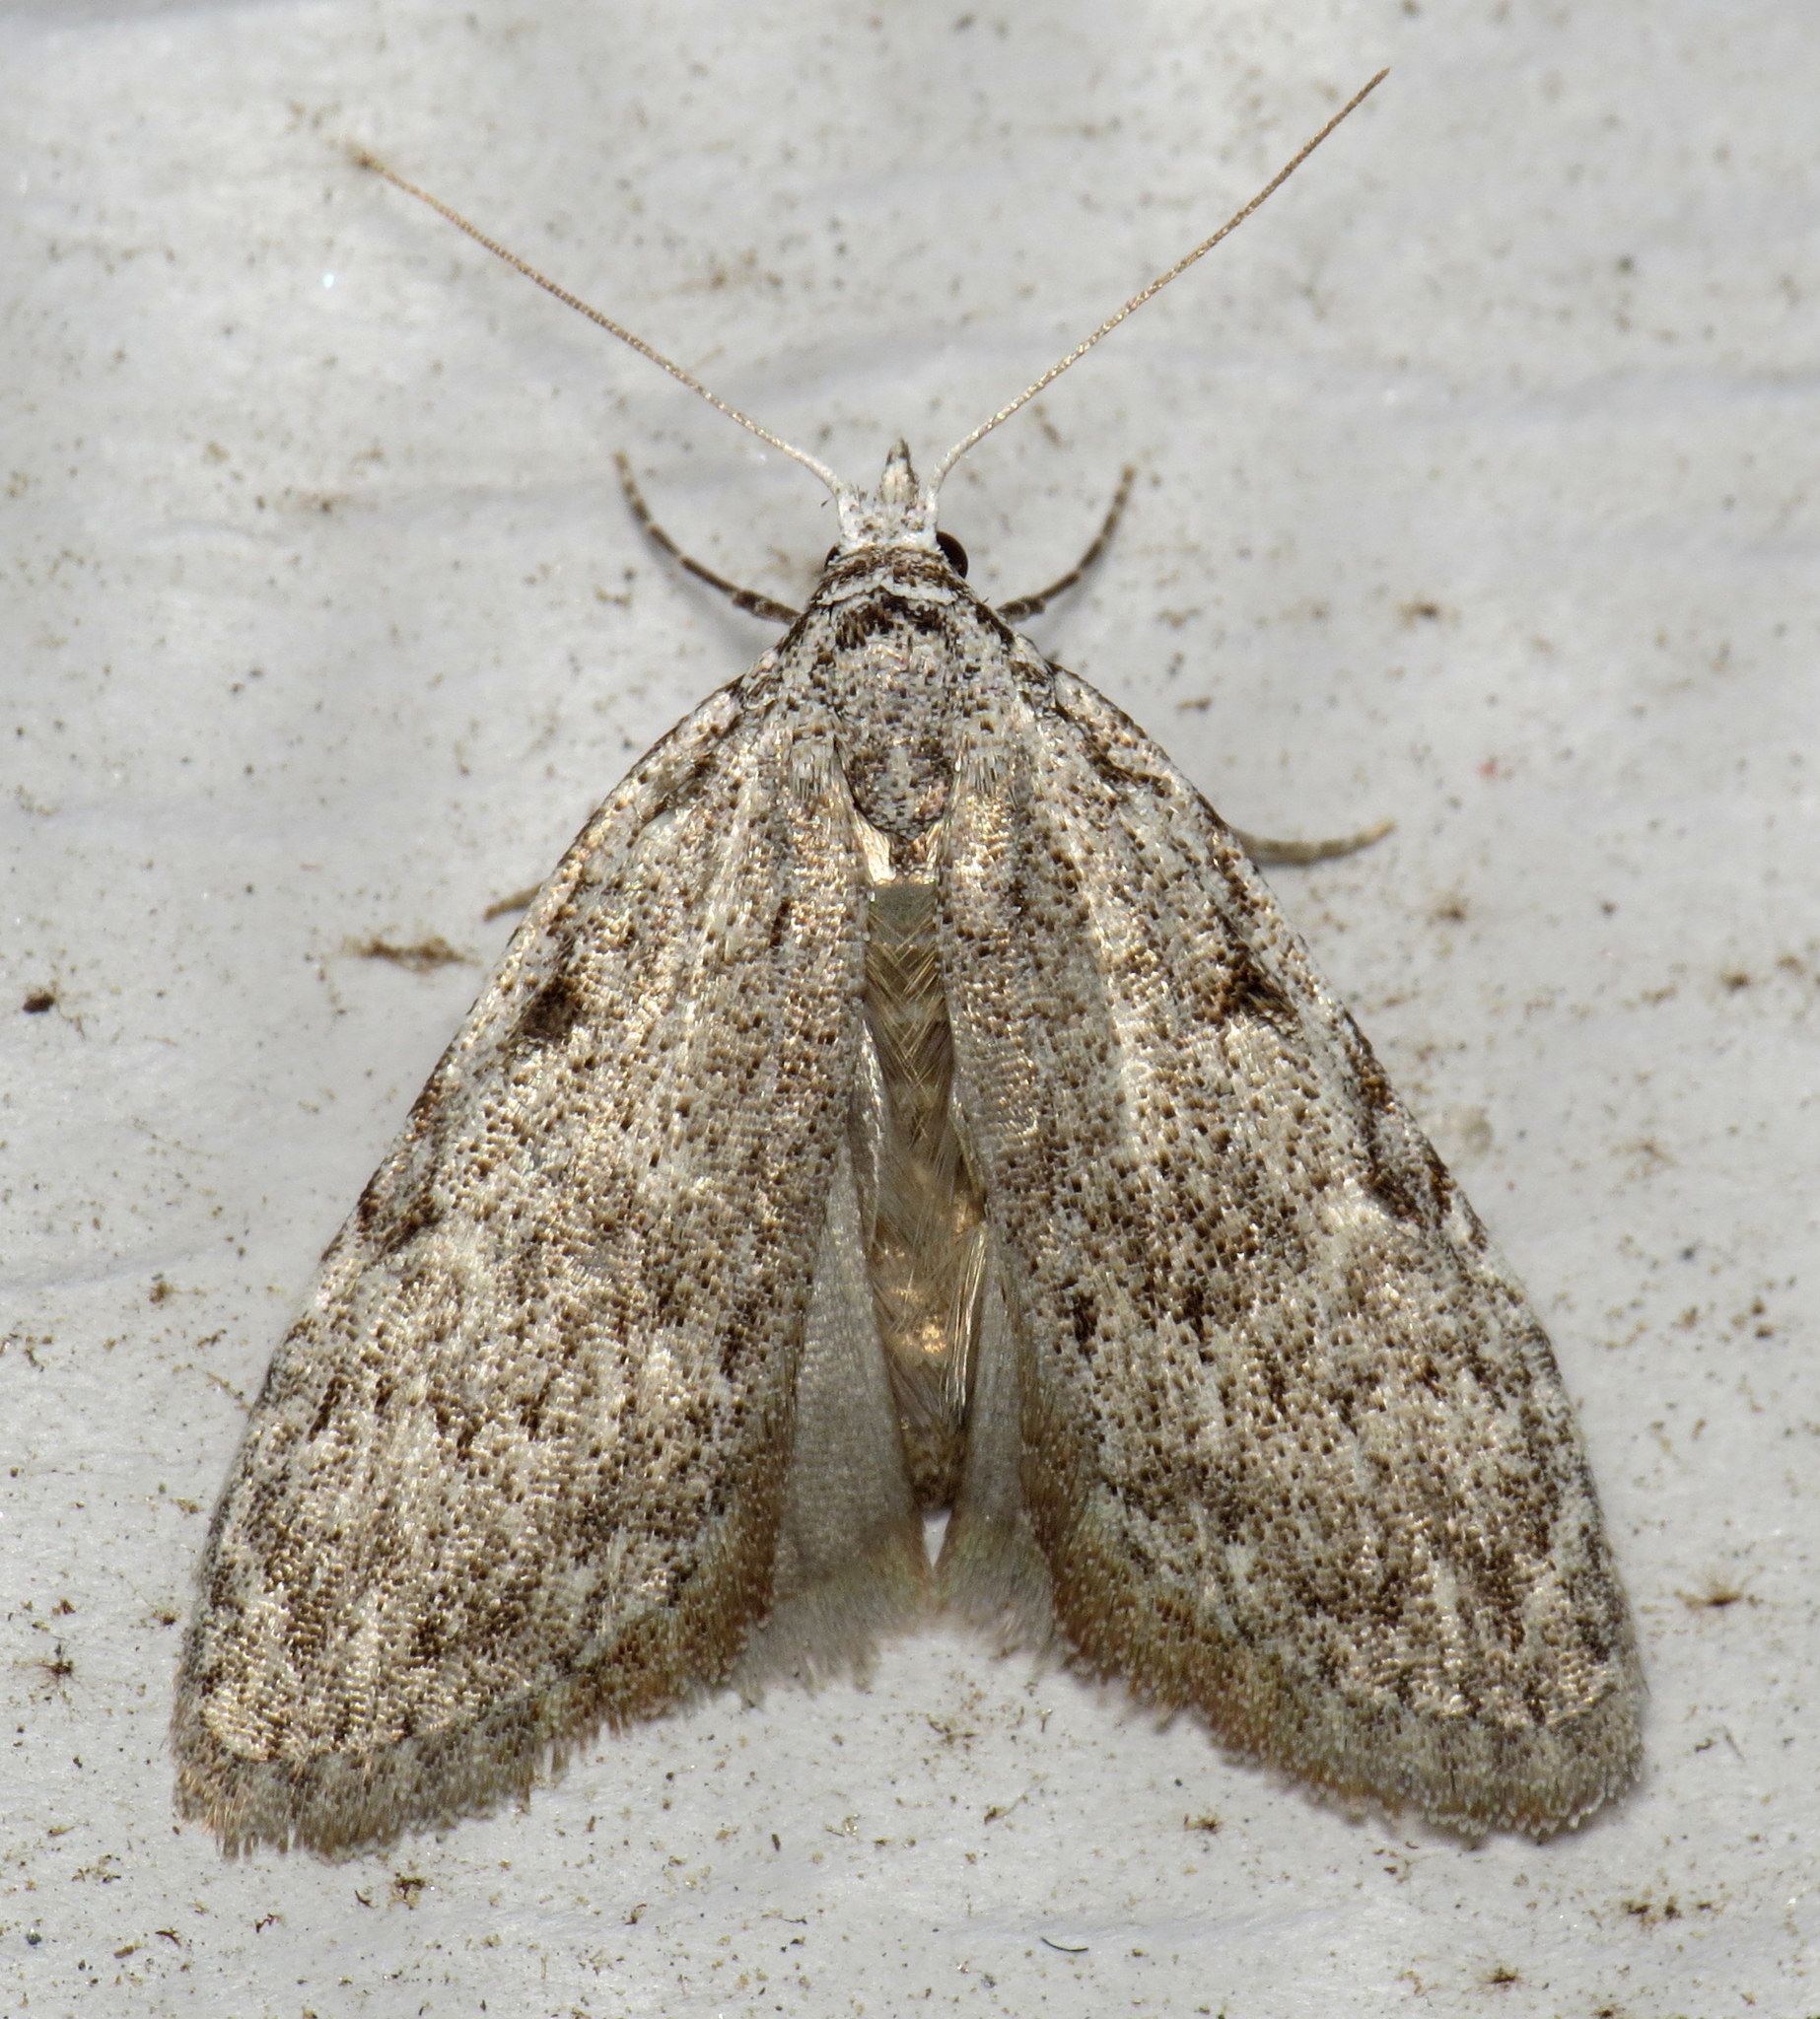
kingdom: Animalia
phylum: Arthropoda
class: Insecta
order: Lepidoptera
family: Nolidae
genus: Nola
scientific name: Nola clethrae
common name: Sweet pepperbush nola moth
